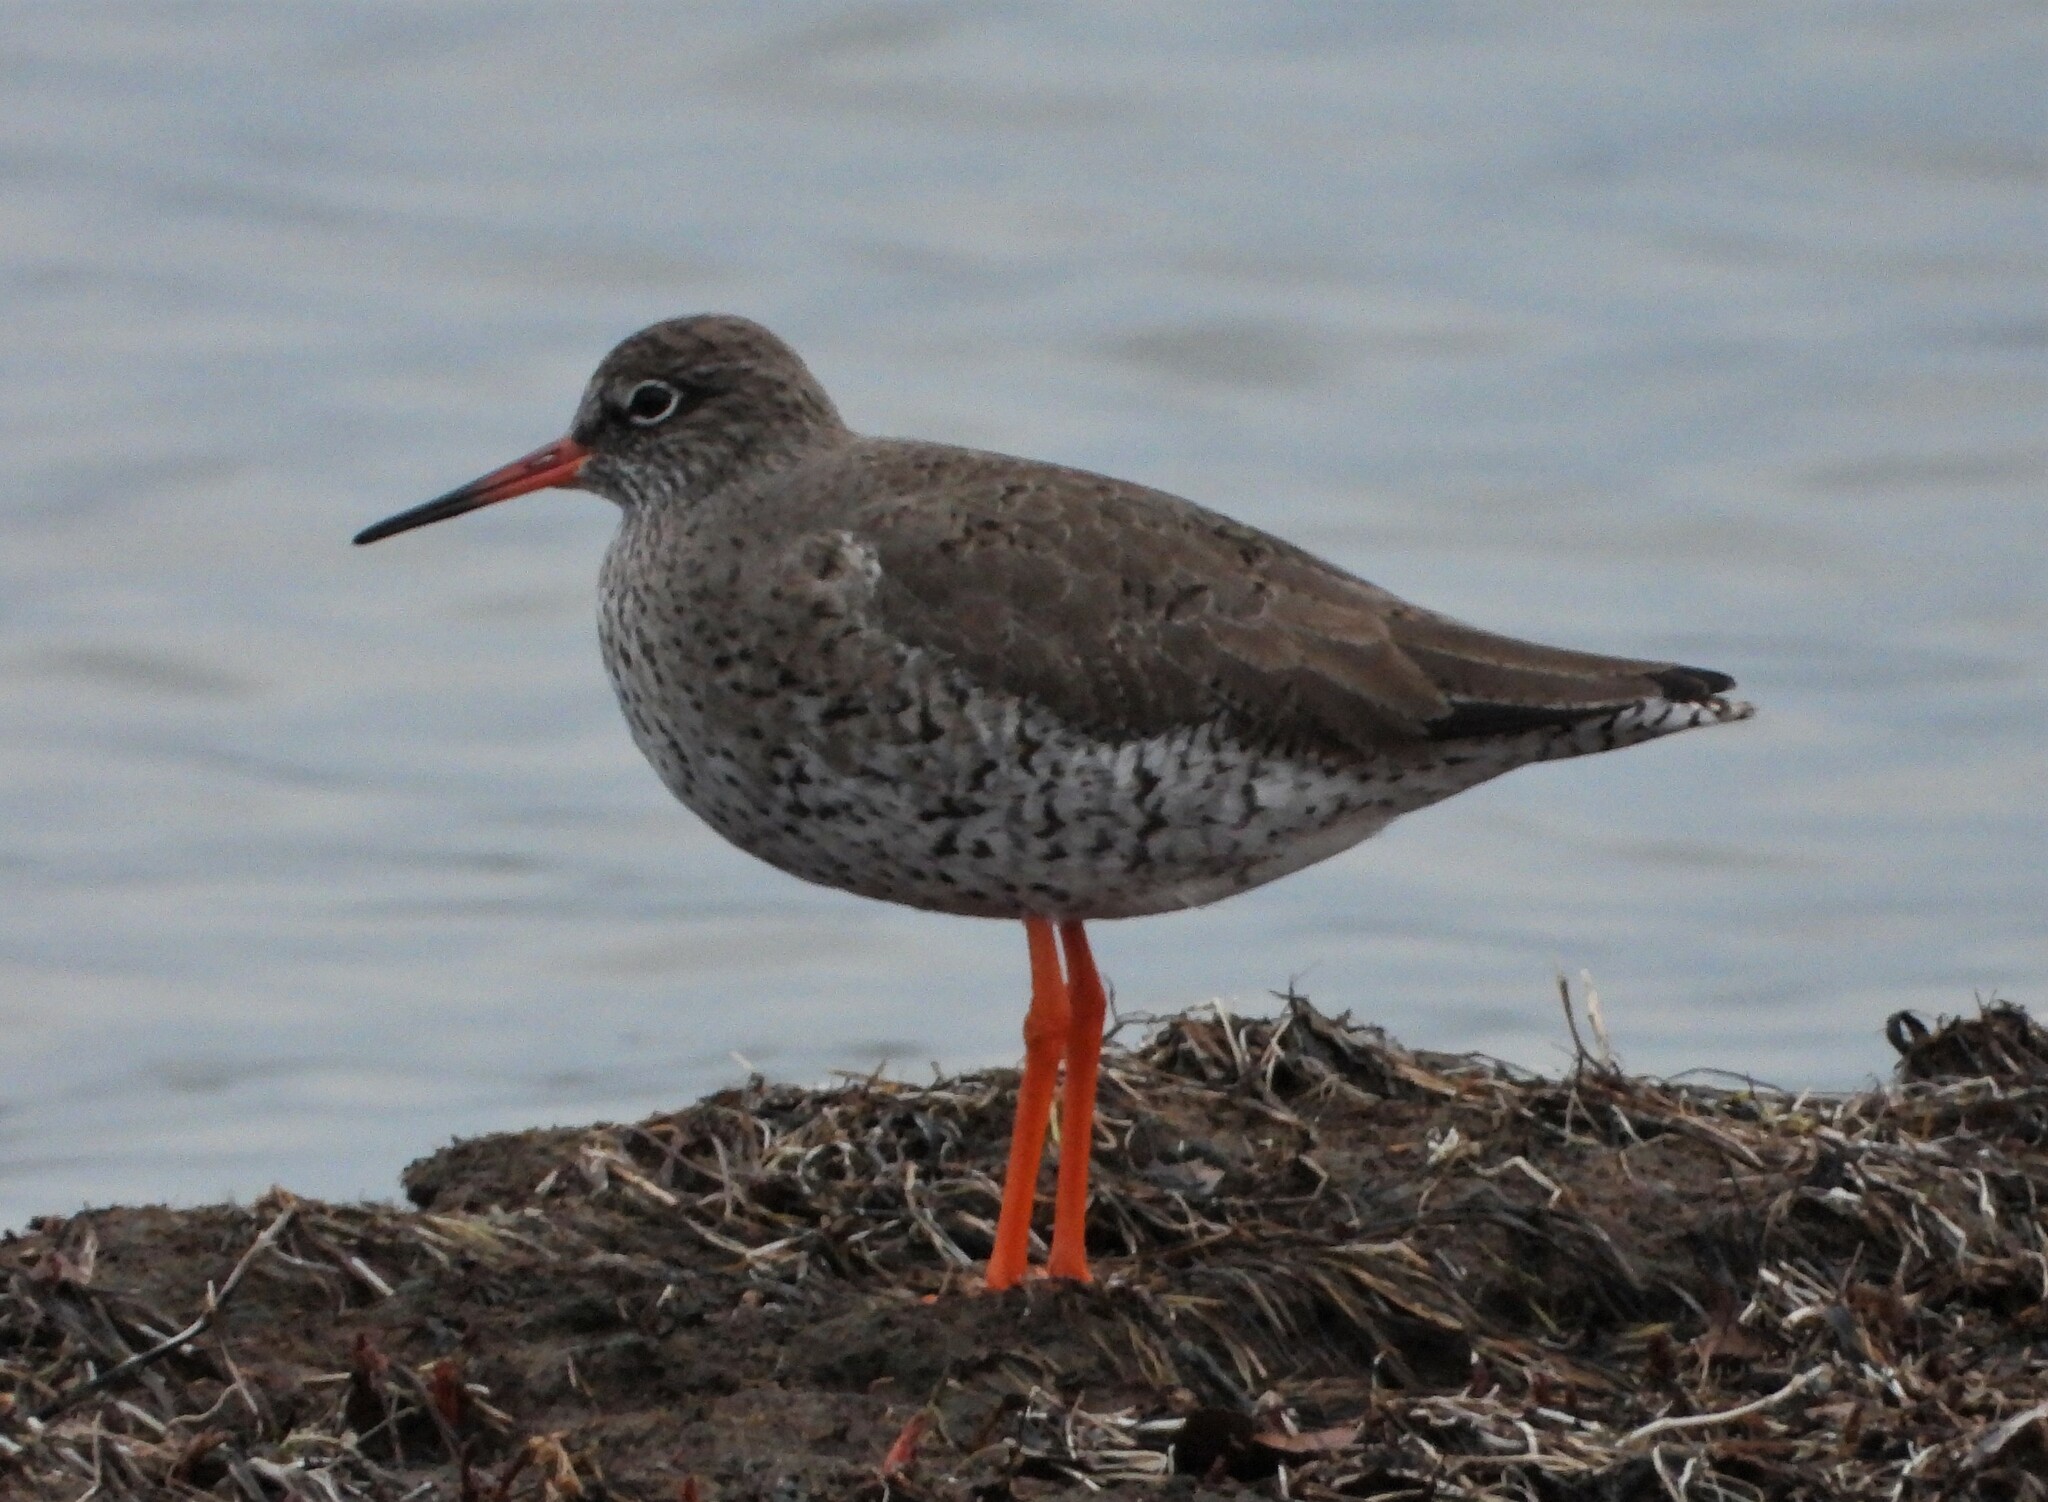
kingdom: Animalia
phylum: Chordata
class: Aves
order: Charadriiformes
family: Scolopacidae
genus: Tringa
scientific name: Tringa totanus
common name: Common redshank
